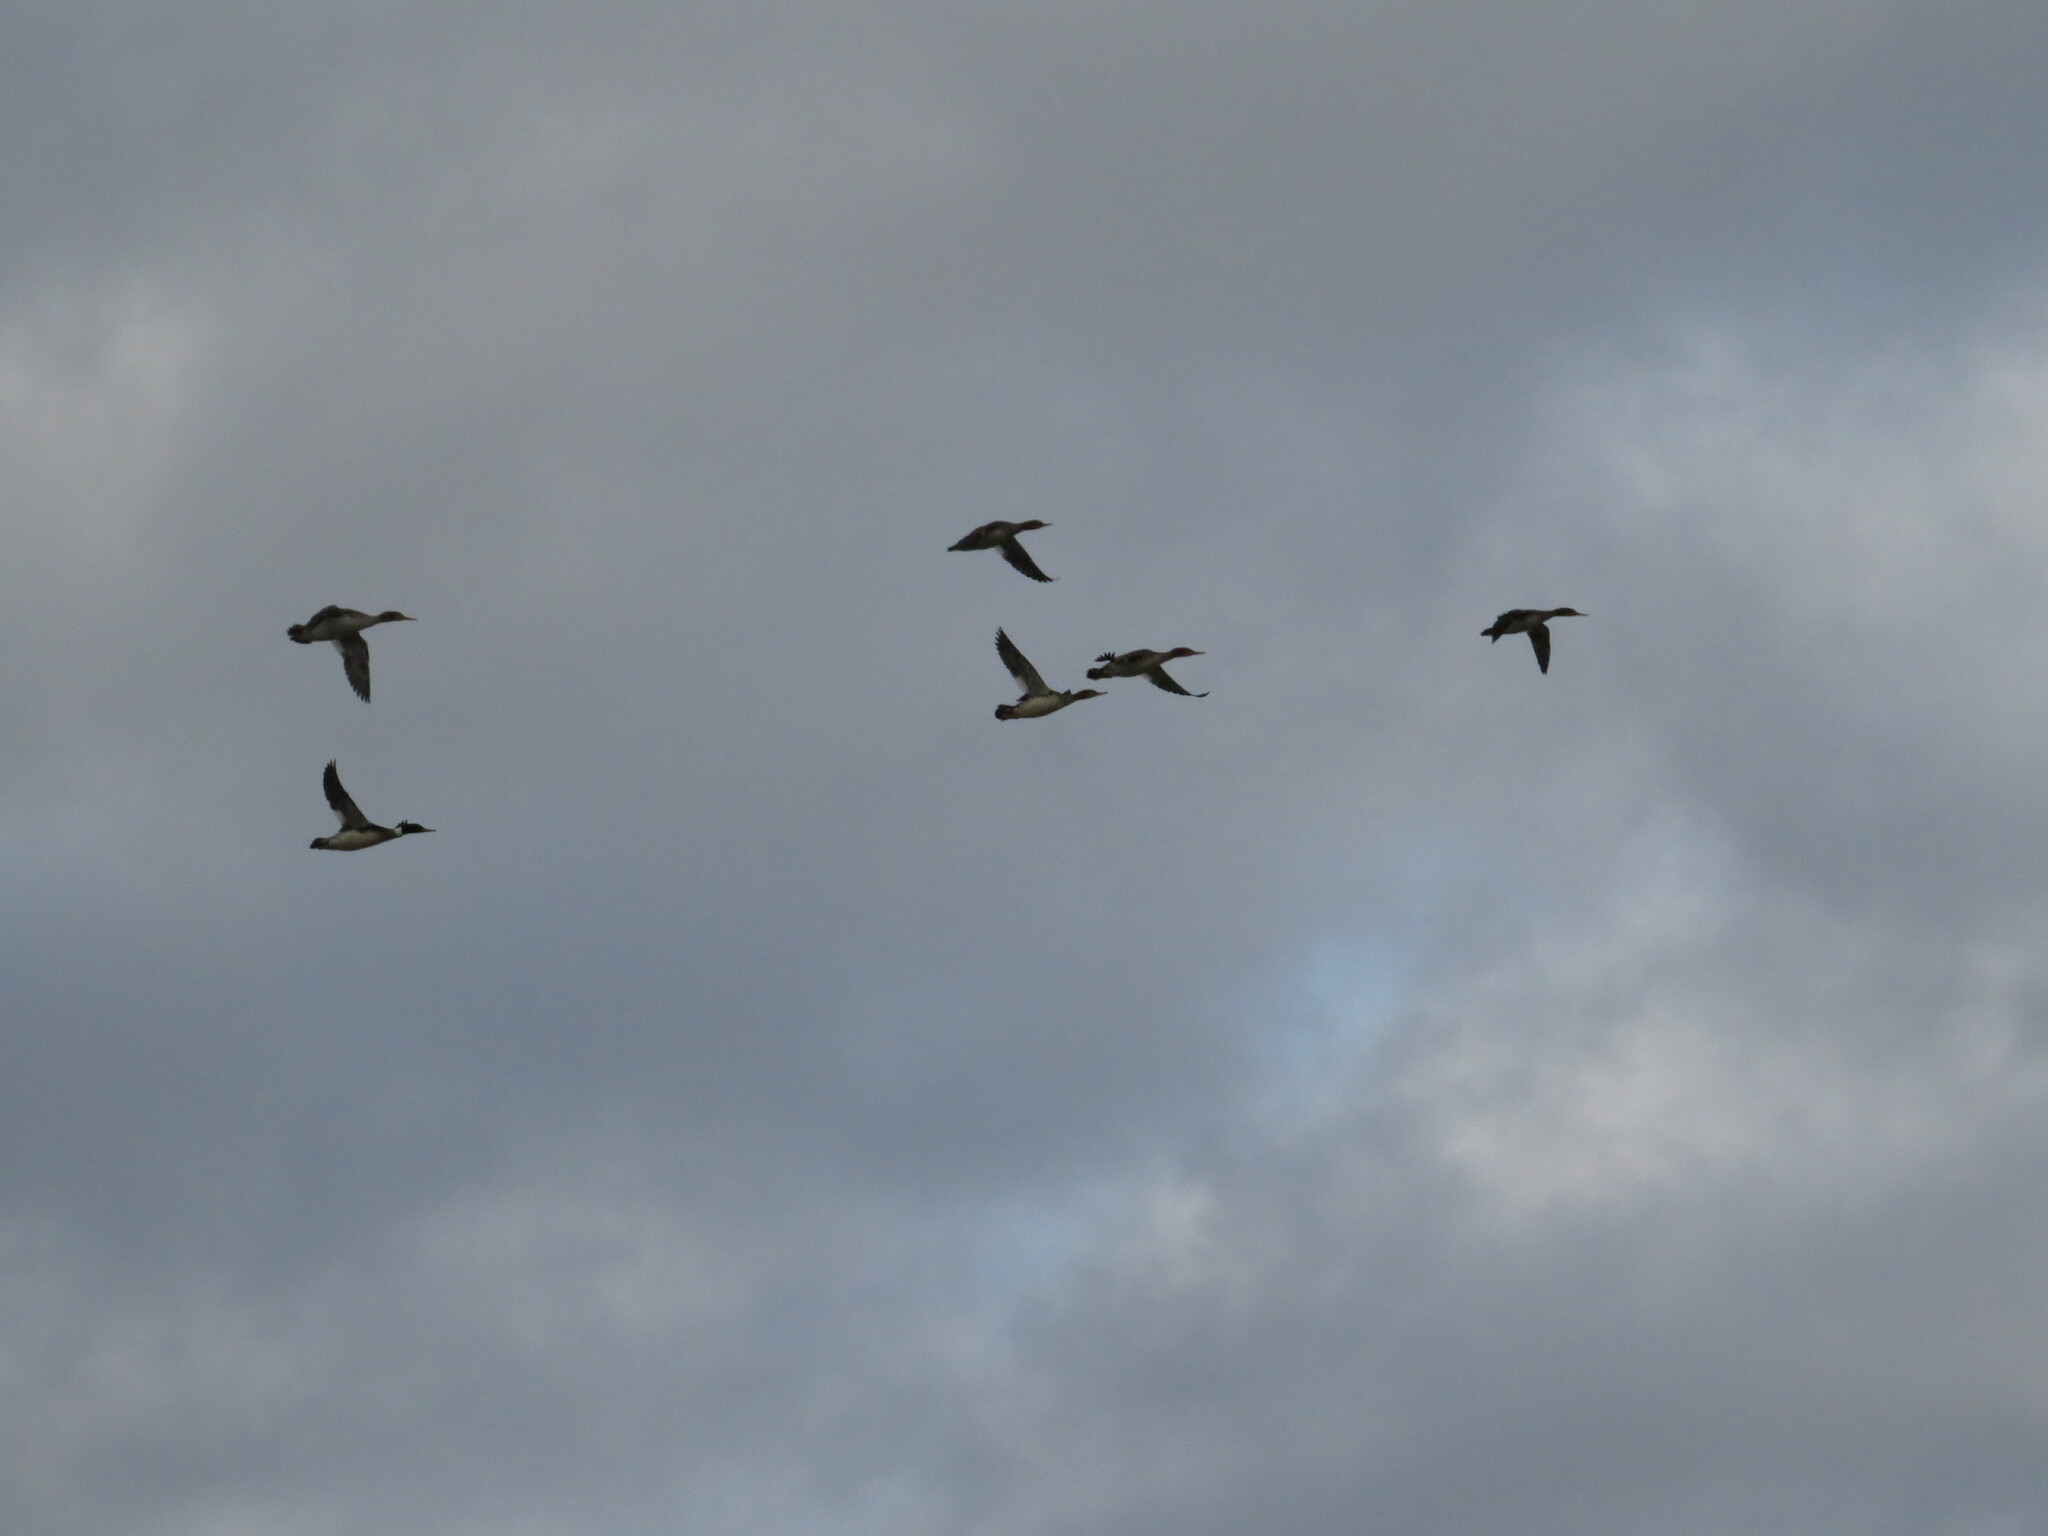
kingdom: Animalia
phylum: Chordata
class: Aves
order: Anseriformes
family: Anatidae
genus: Mergus
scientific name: Mergus serrator
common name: Red-breasted merganser
